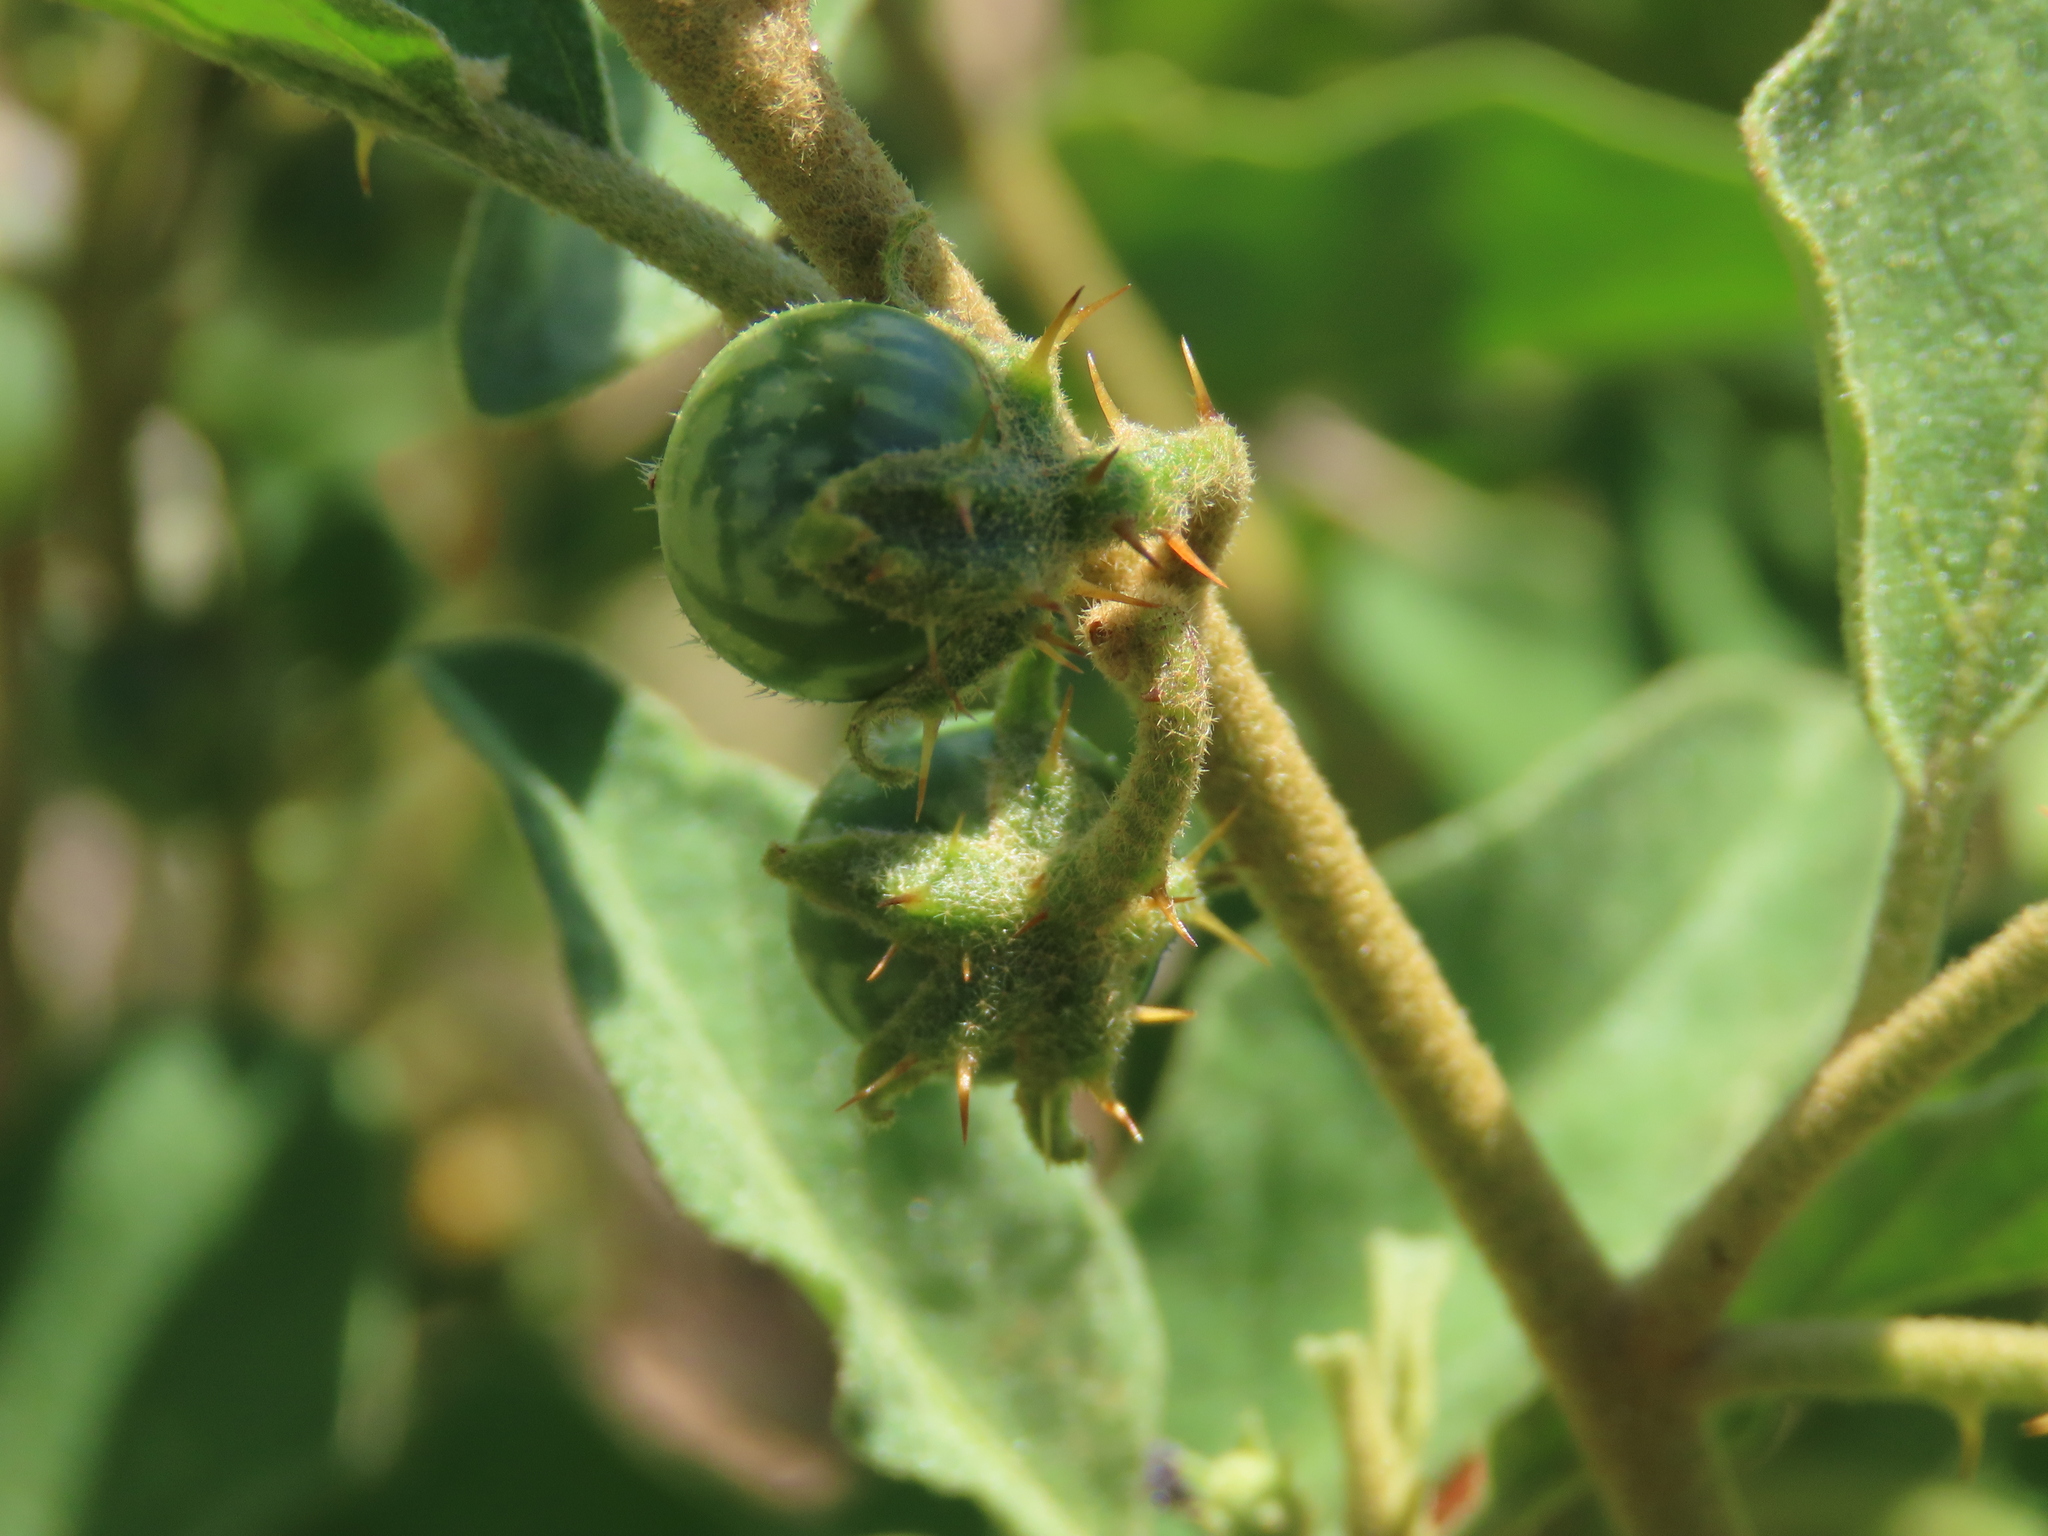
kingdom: Plantae
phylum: Tracheophyta
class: Magnoliopsida
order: Solanales
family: Solanaceae
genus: Solanum
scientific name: Solanum catombelense
